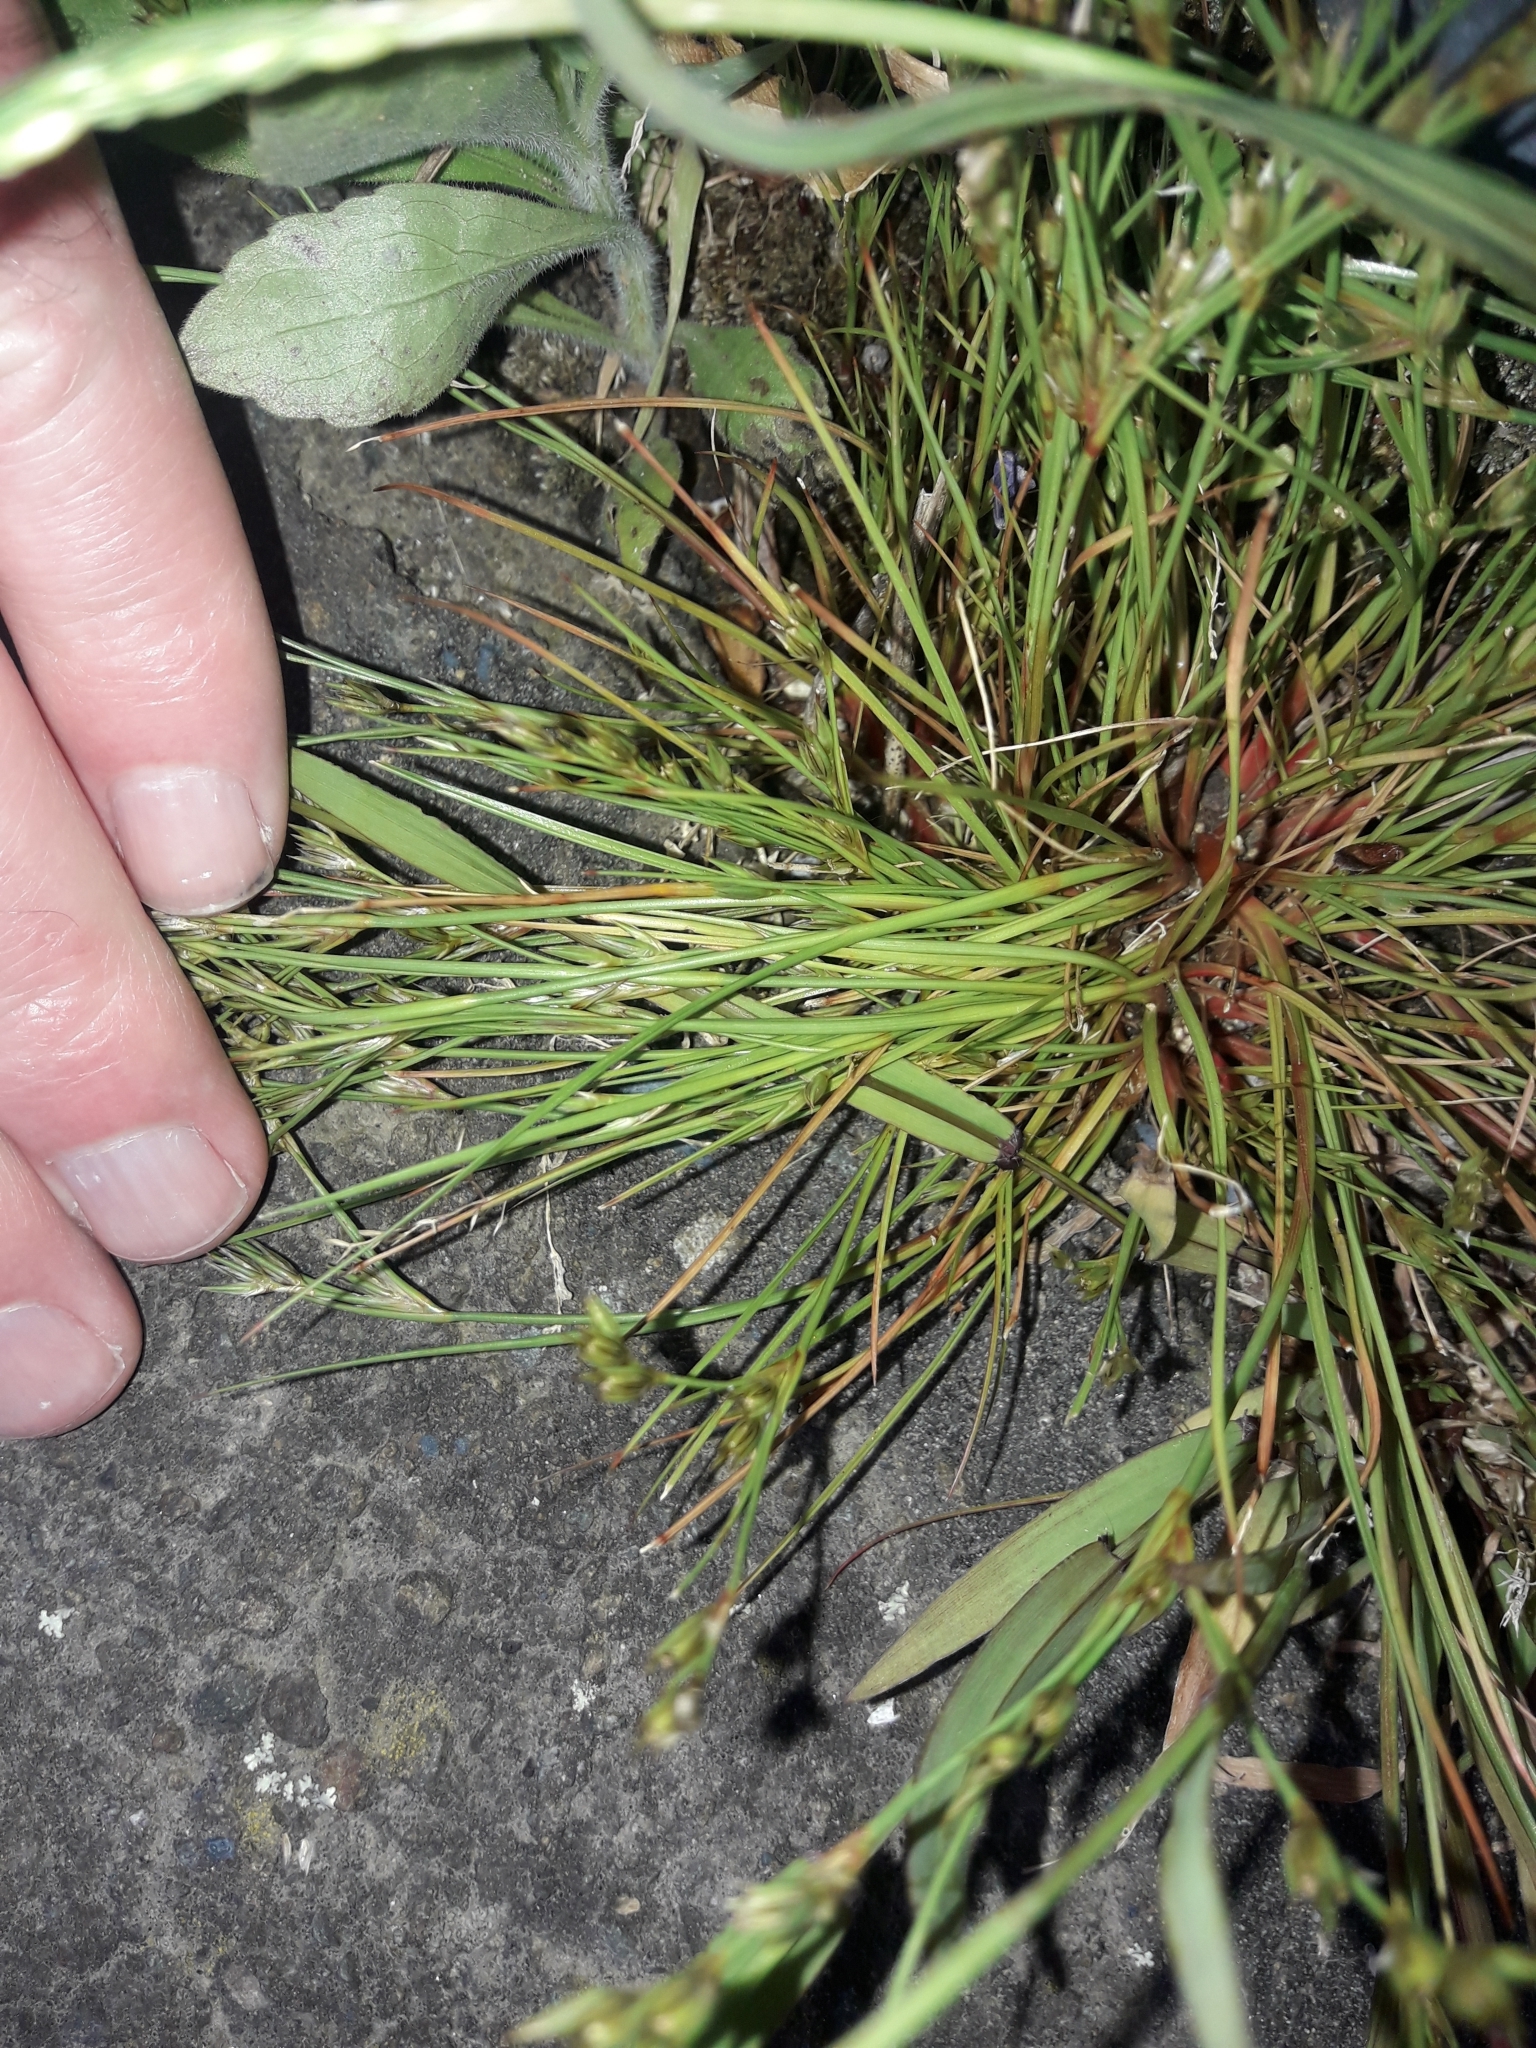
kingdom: Plantae
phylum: Tracheophyta
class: Liliopsida
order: Poales
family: Juncaceae
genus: Juncus
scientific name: Juncus bufonius
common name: Toad rush
